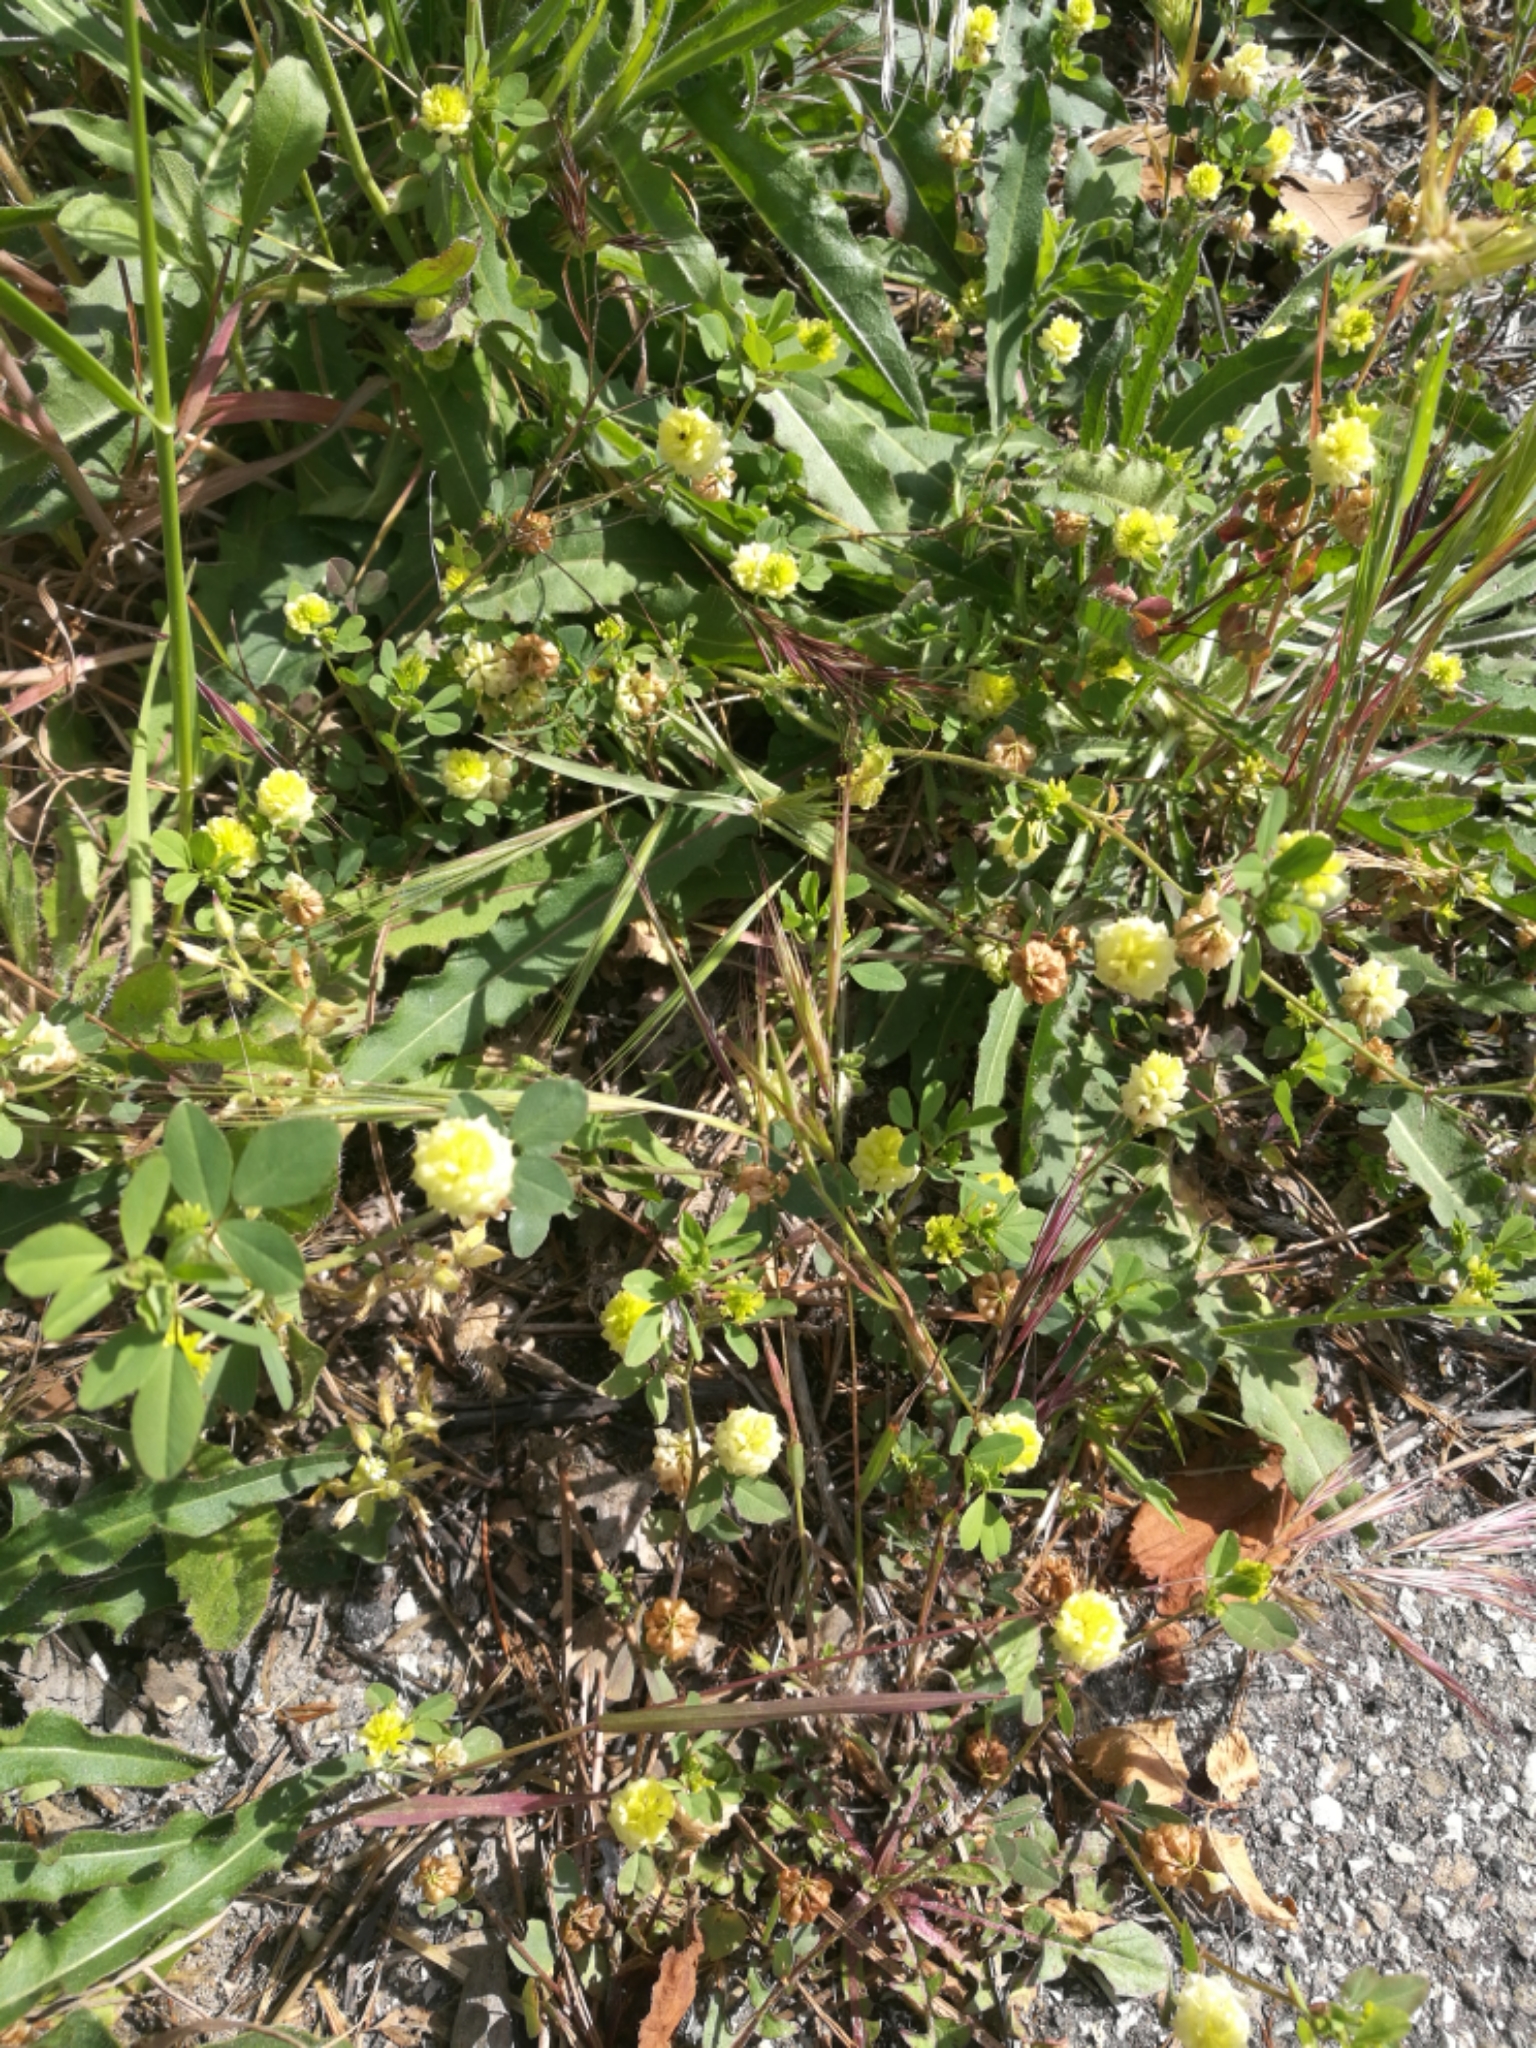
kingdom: Plantae
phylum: Tracheophyta
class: Magnoliopsida
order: Fabales
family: Fabaceae
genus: Trifolium
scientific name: Trifolium campestre
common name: Field clover
